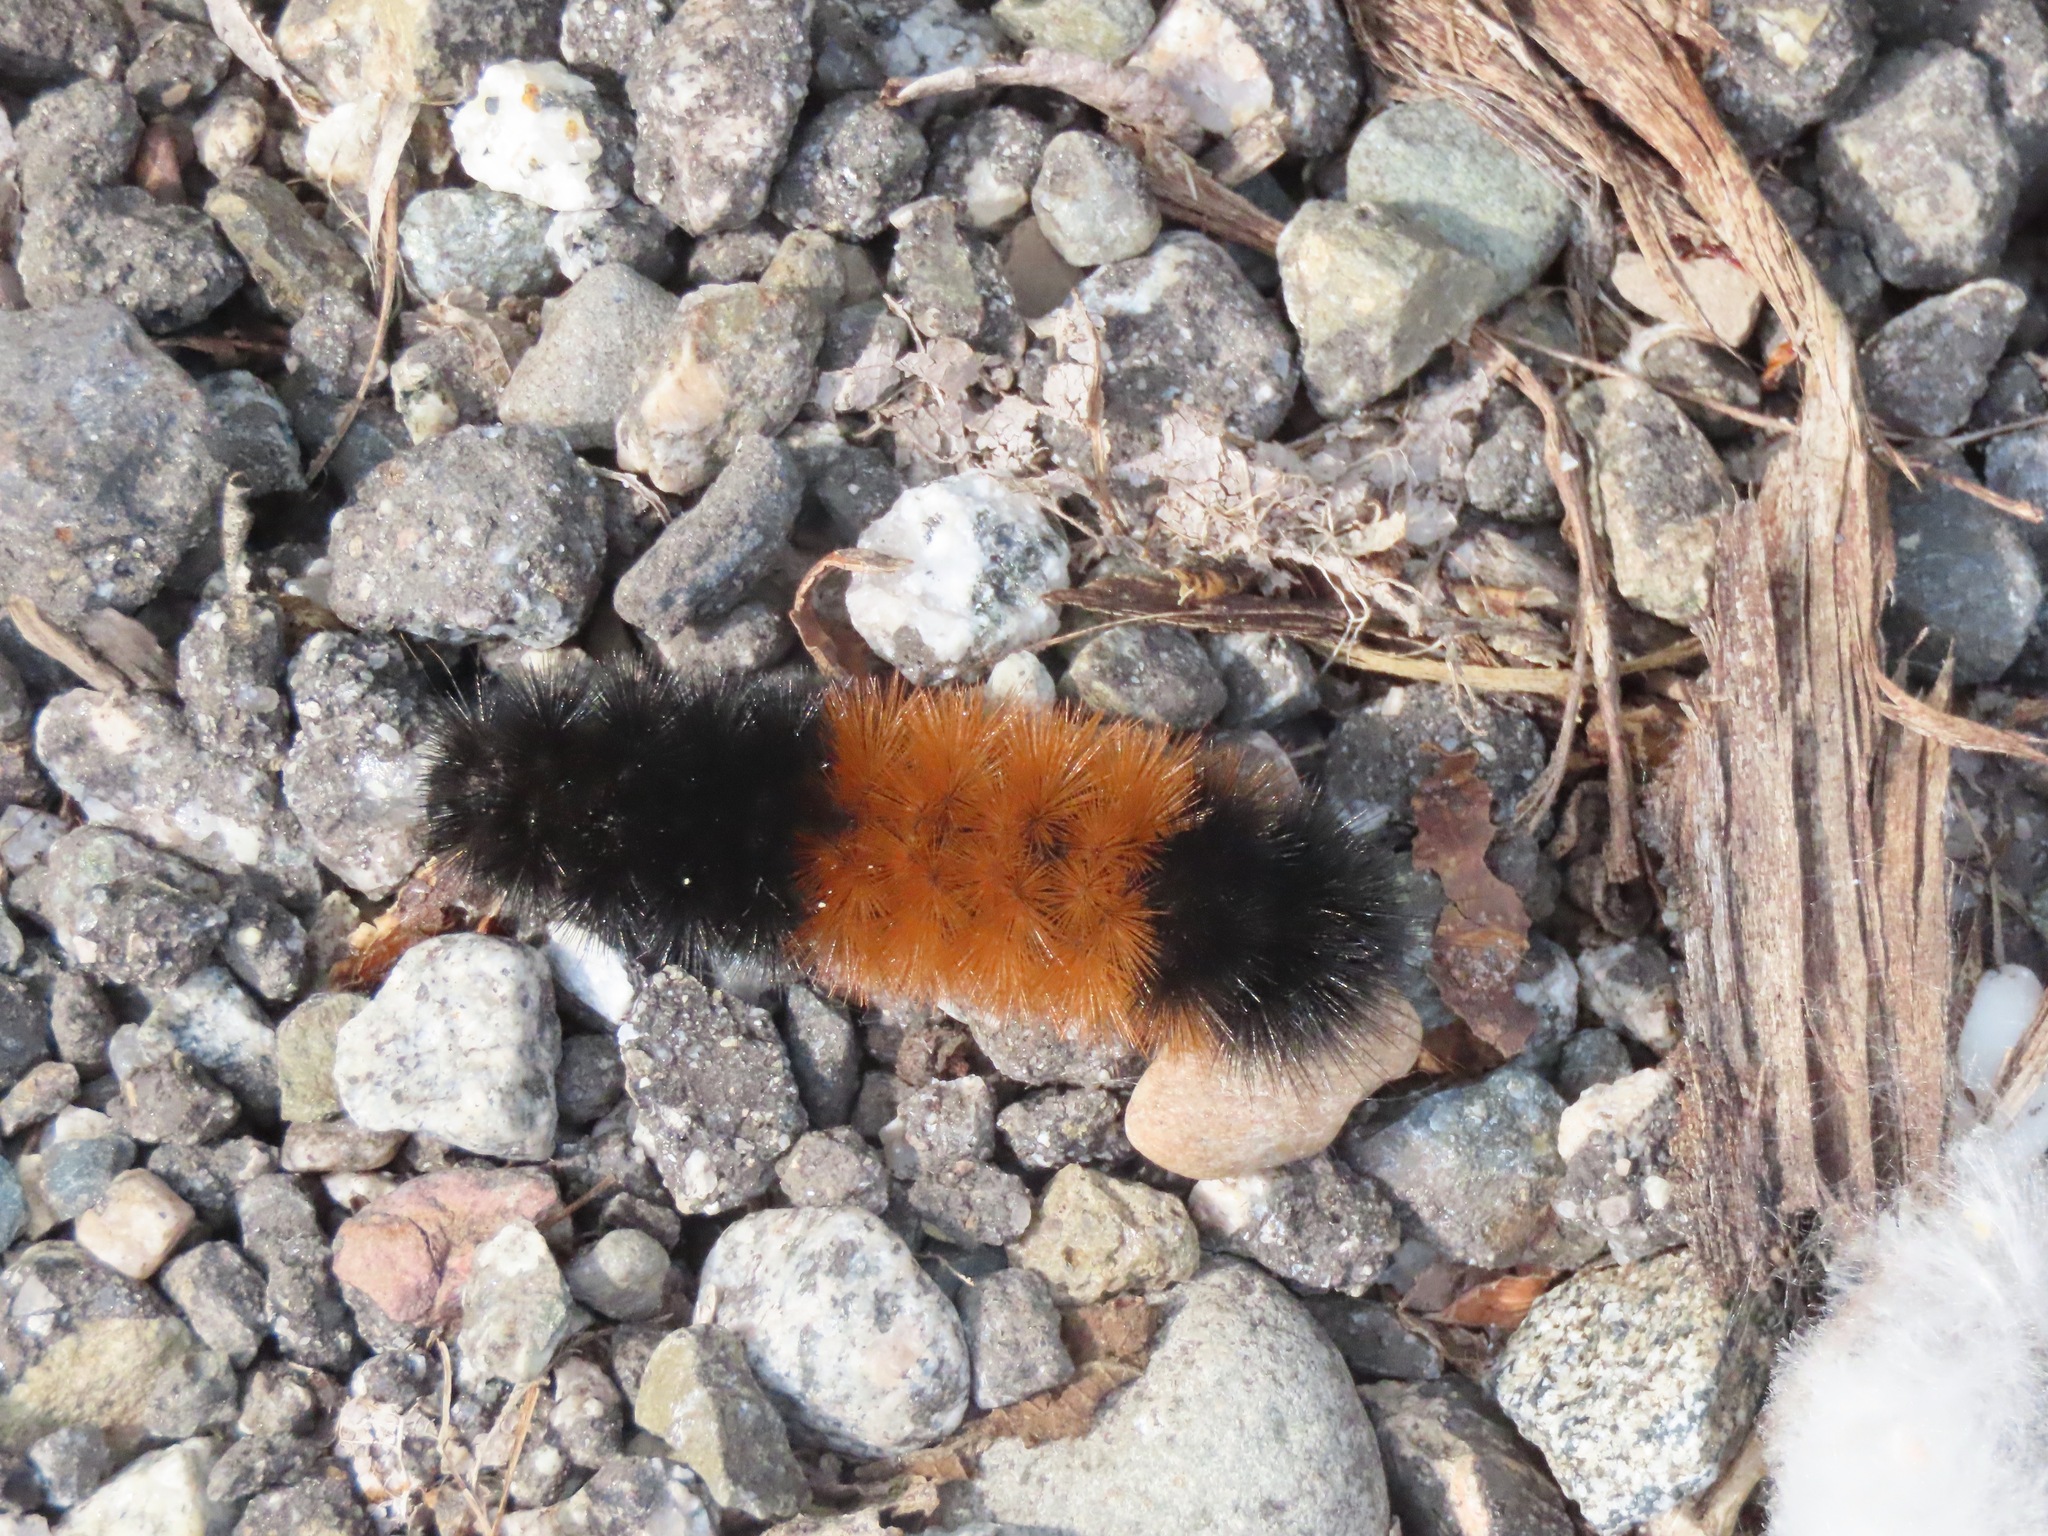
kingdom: Animalia
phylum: Arthropoda
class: Insecta
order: Lepidoptera
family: Erebidae
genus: Pyrrharctia
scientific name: Pyrrharctia isabella
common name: Isabella tiger moth
